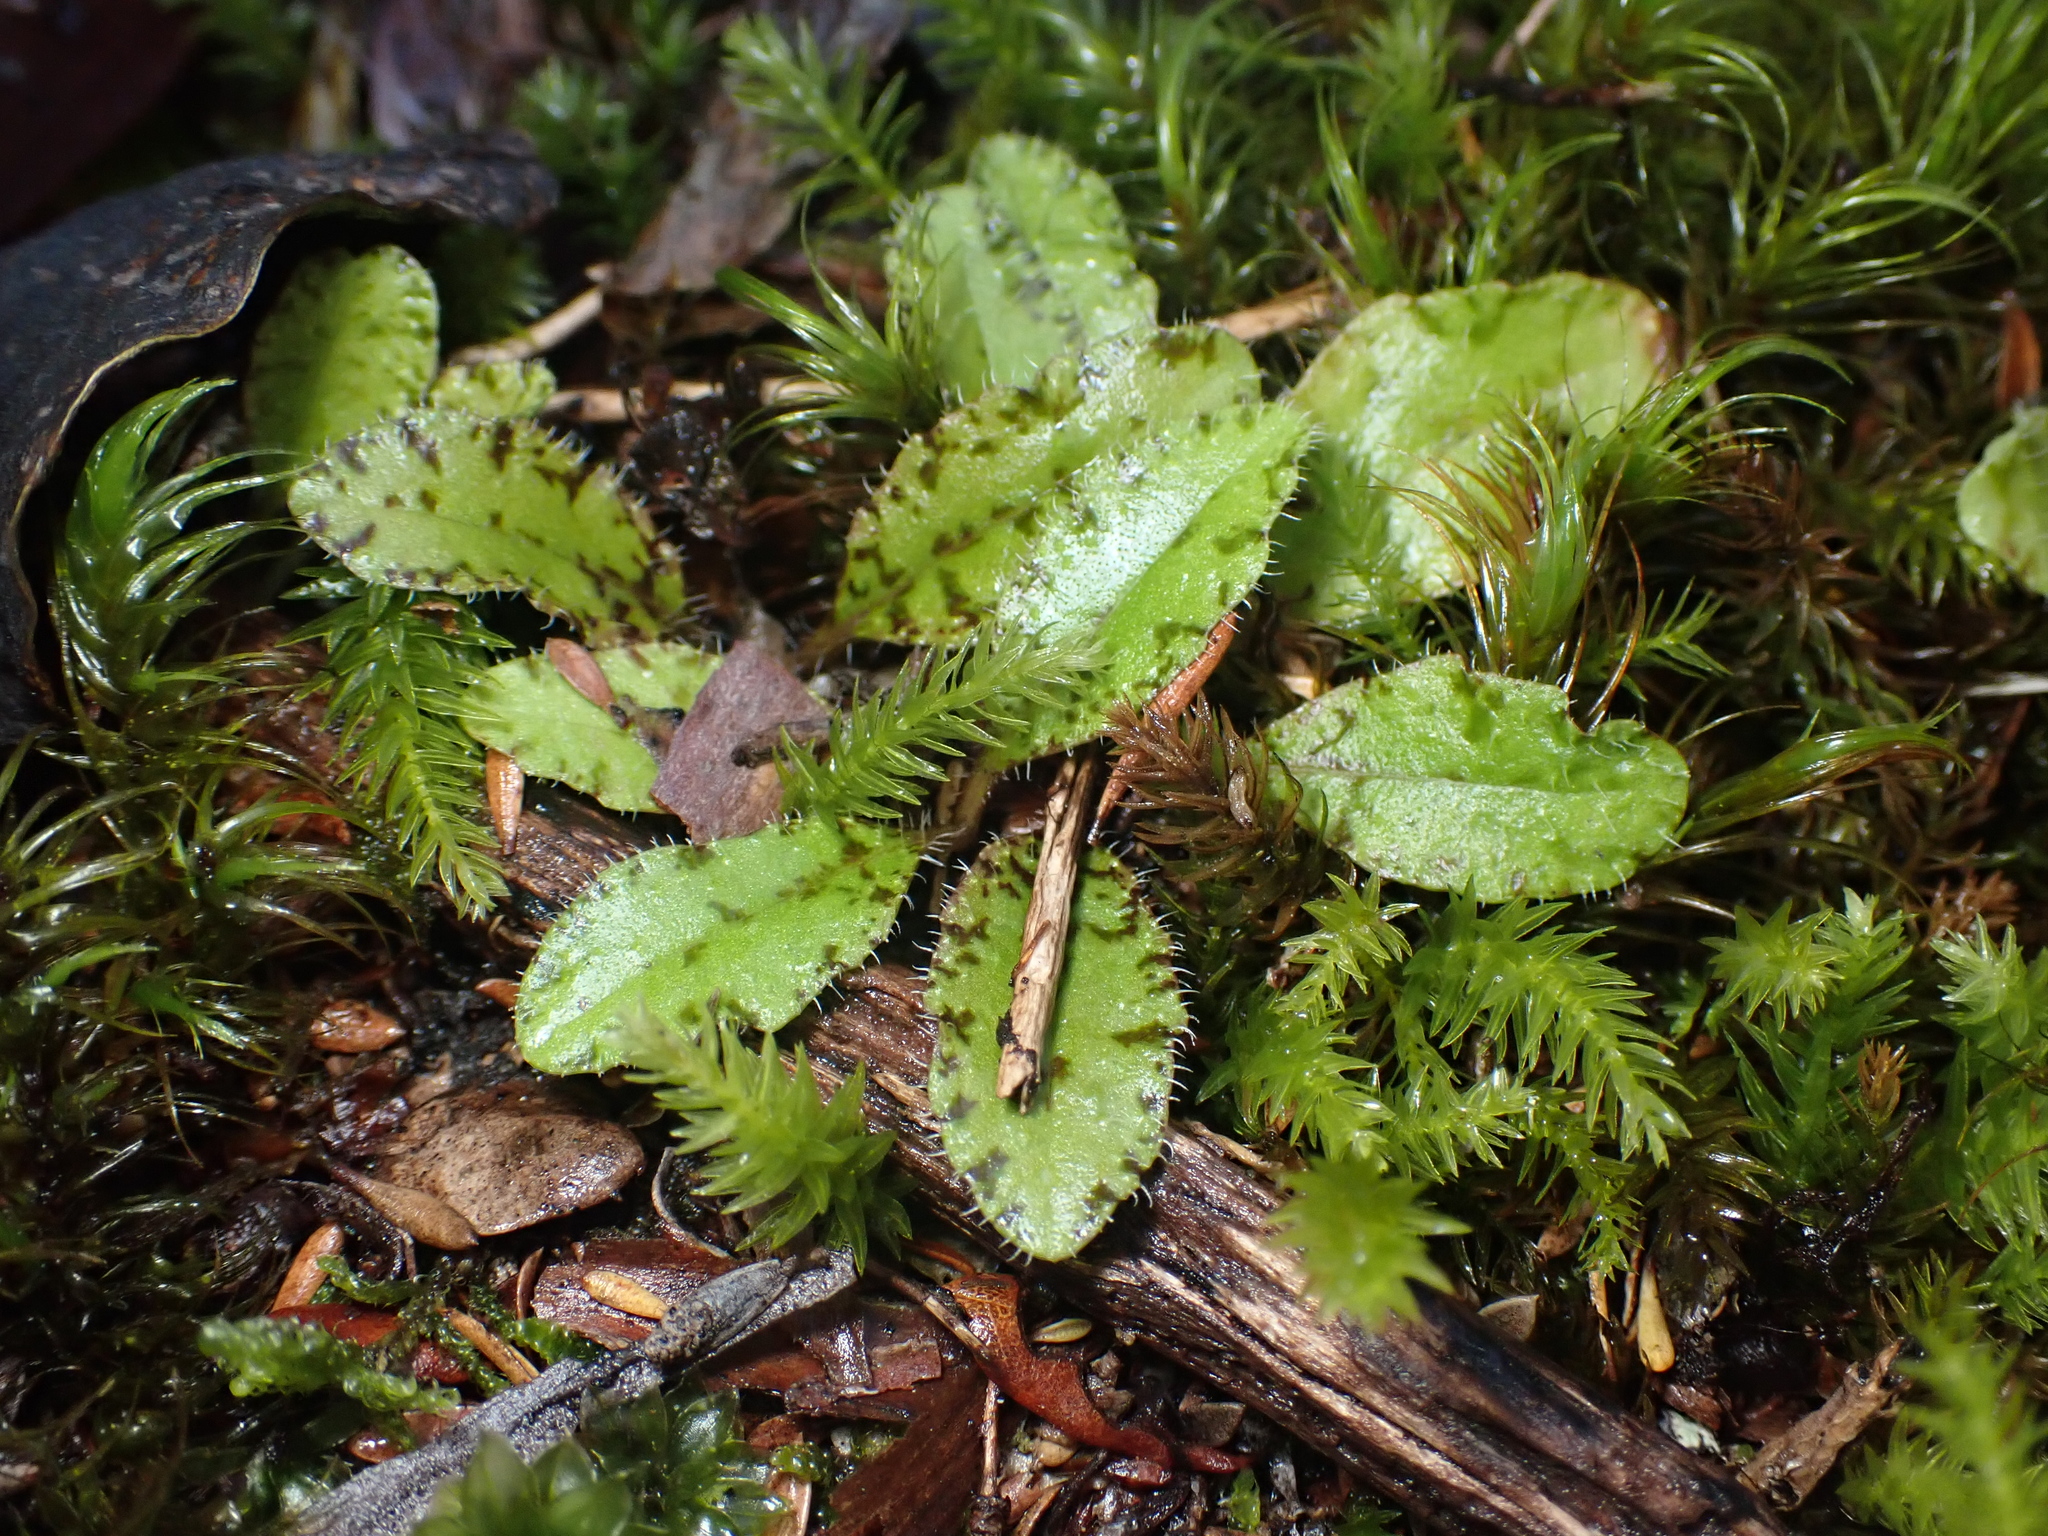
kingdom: Plantae
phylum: Tracheophyta
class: Magnoliopsida
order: Lamiales
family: Mazaceae
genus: Mazus
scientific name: Mazus radicans
